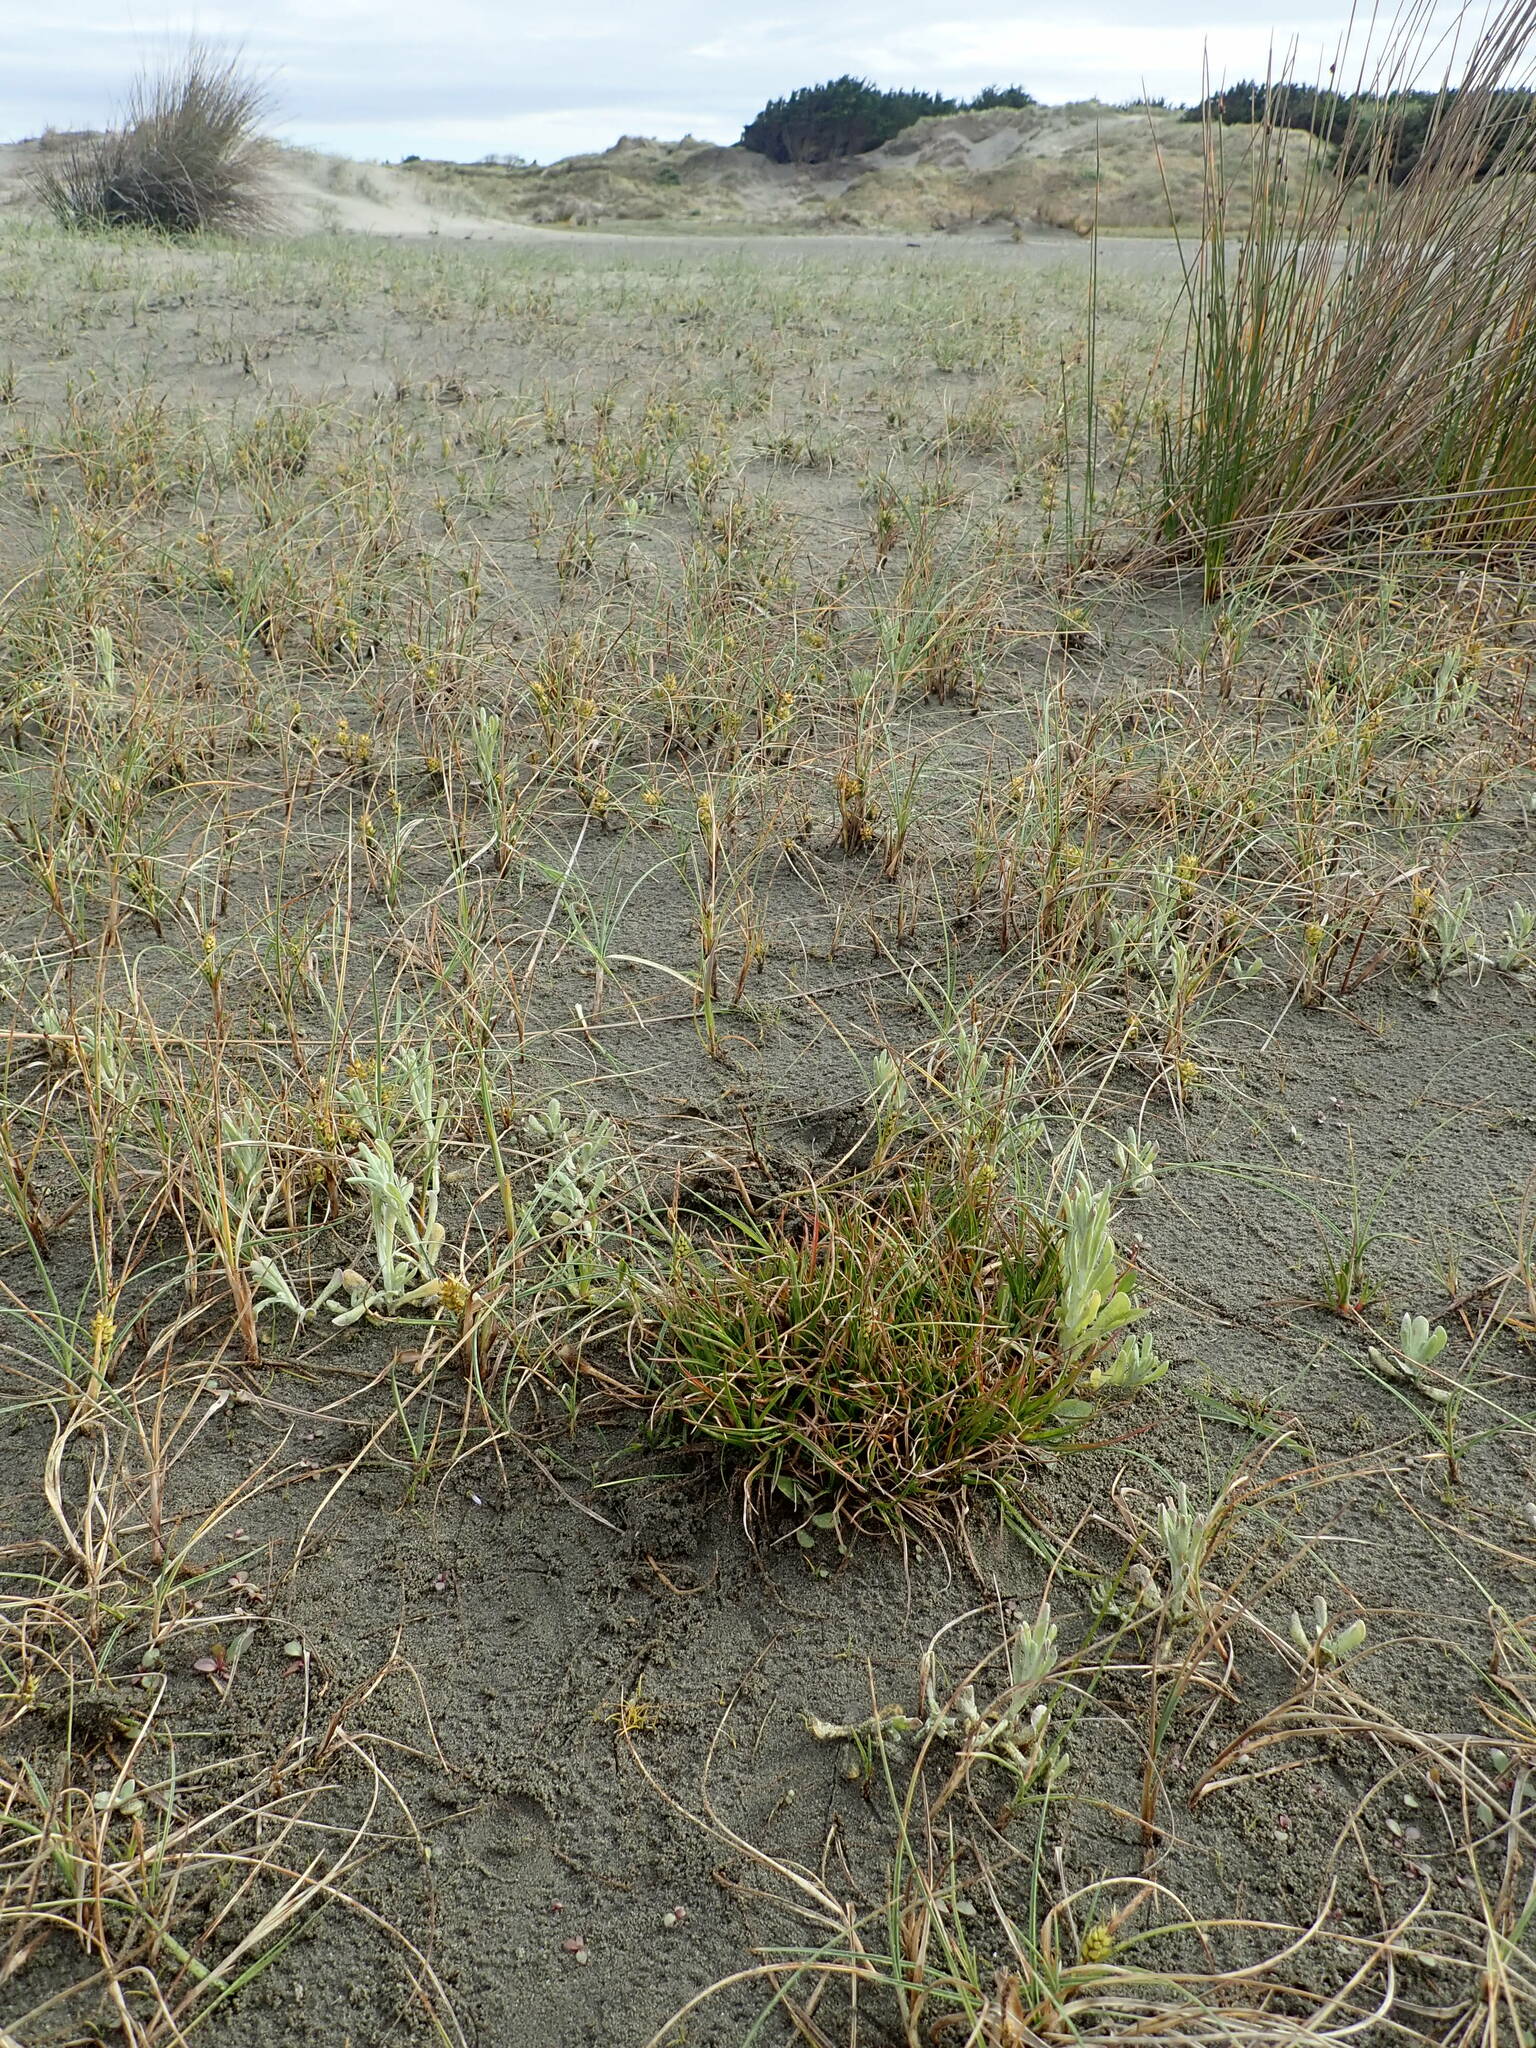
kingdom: Plantae
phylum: Tracheophyta
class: Liliopsida
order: Poales
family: Juncaceae
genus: Juncus
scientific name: Juncus caespiticius
